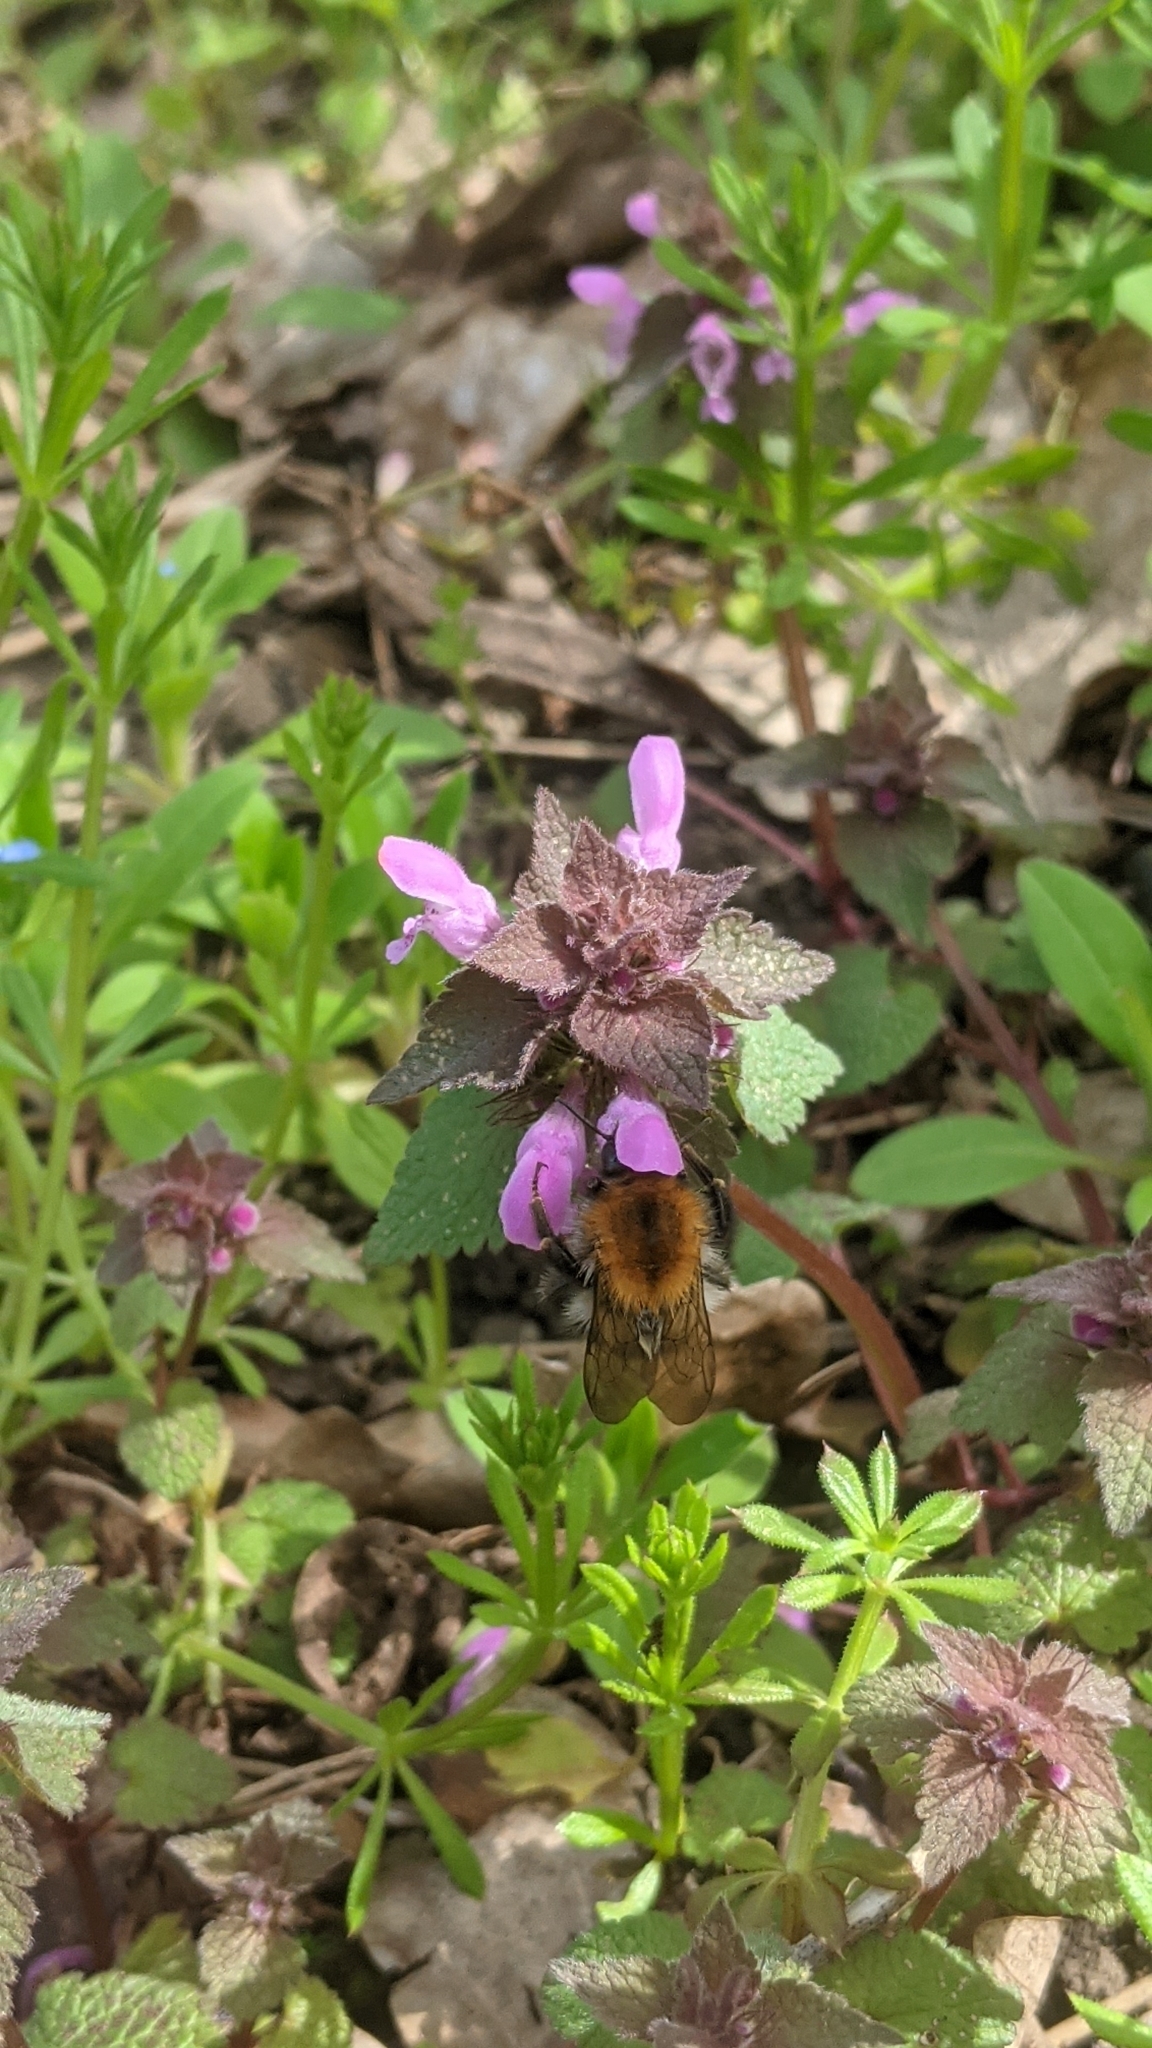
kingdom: Animalia
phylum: Arthropoda
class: Insecta
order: Hymenoptera
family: Apidae
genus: Bombus
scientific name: Bombus pascuorum
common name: Common carder bee
